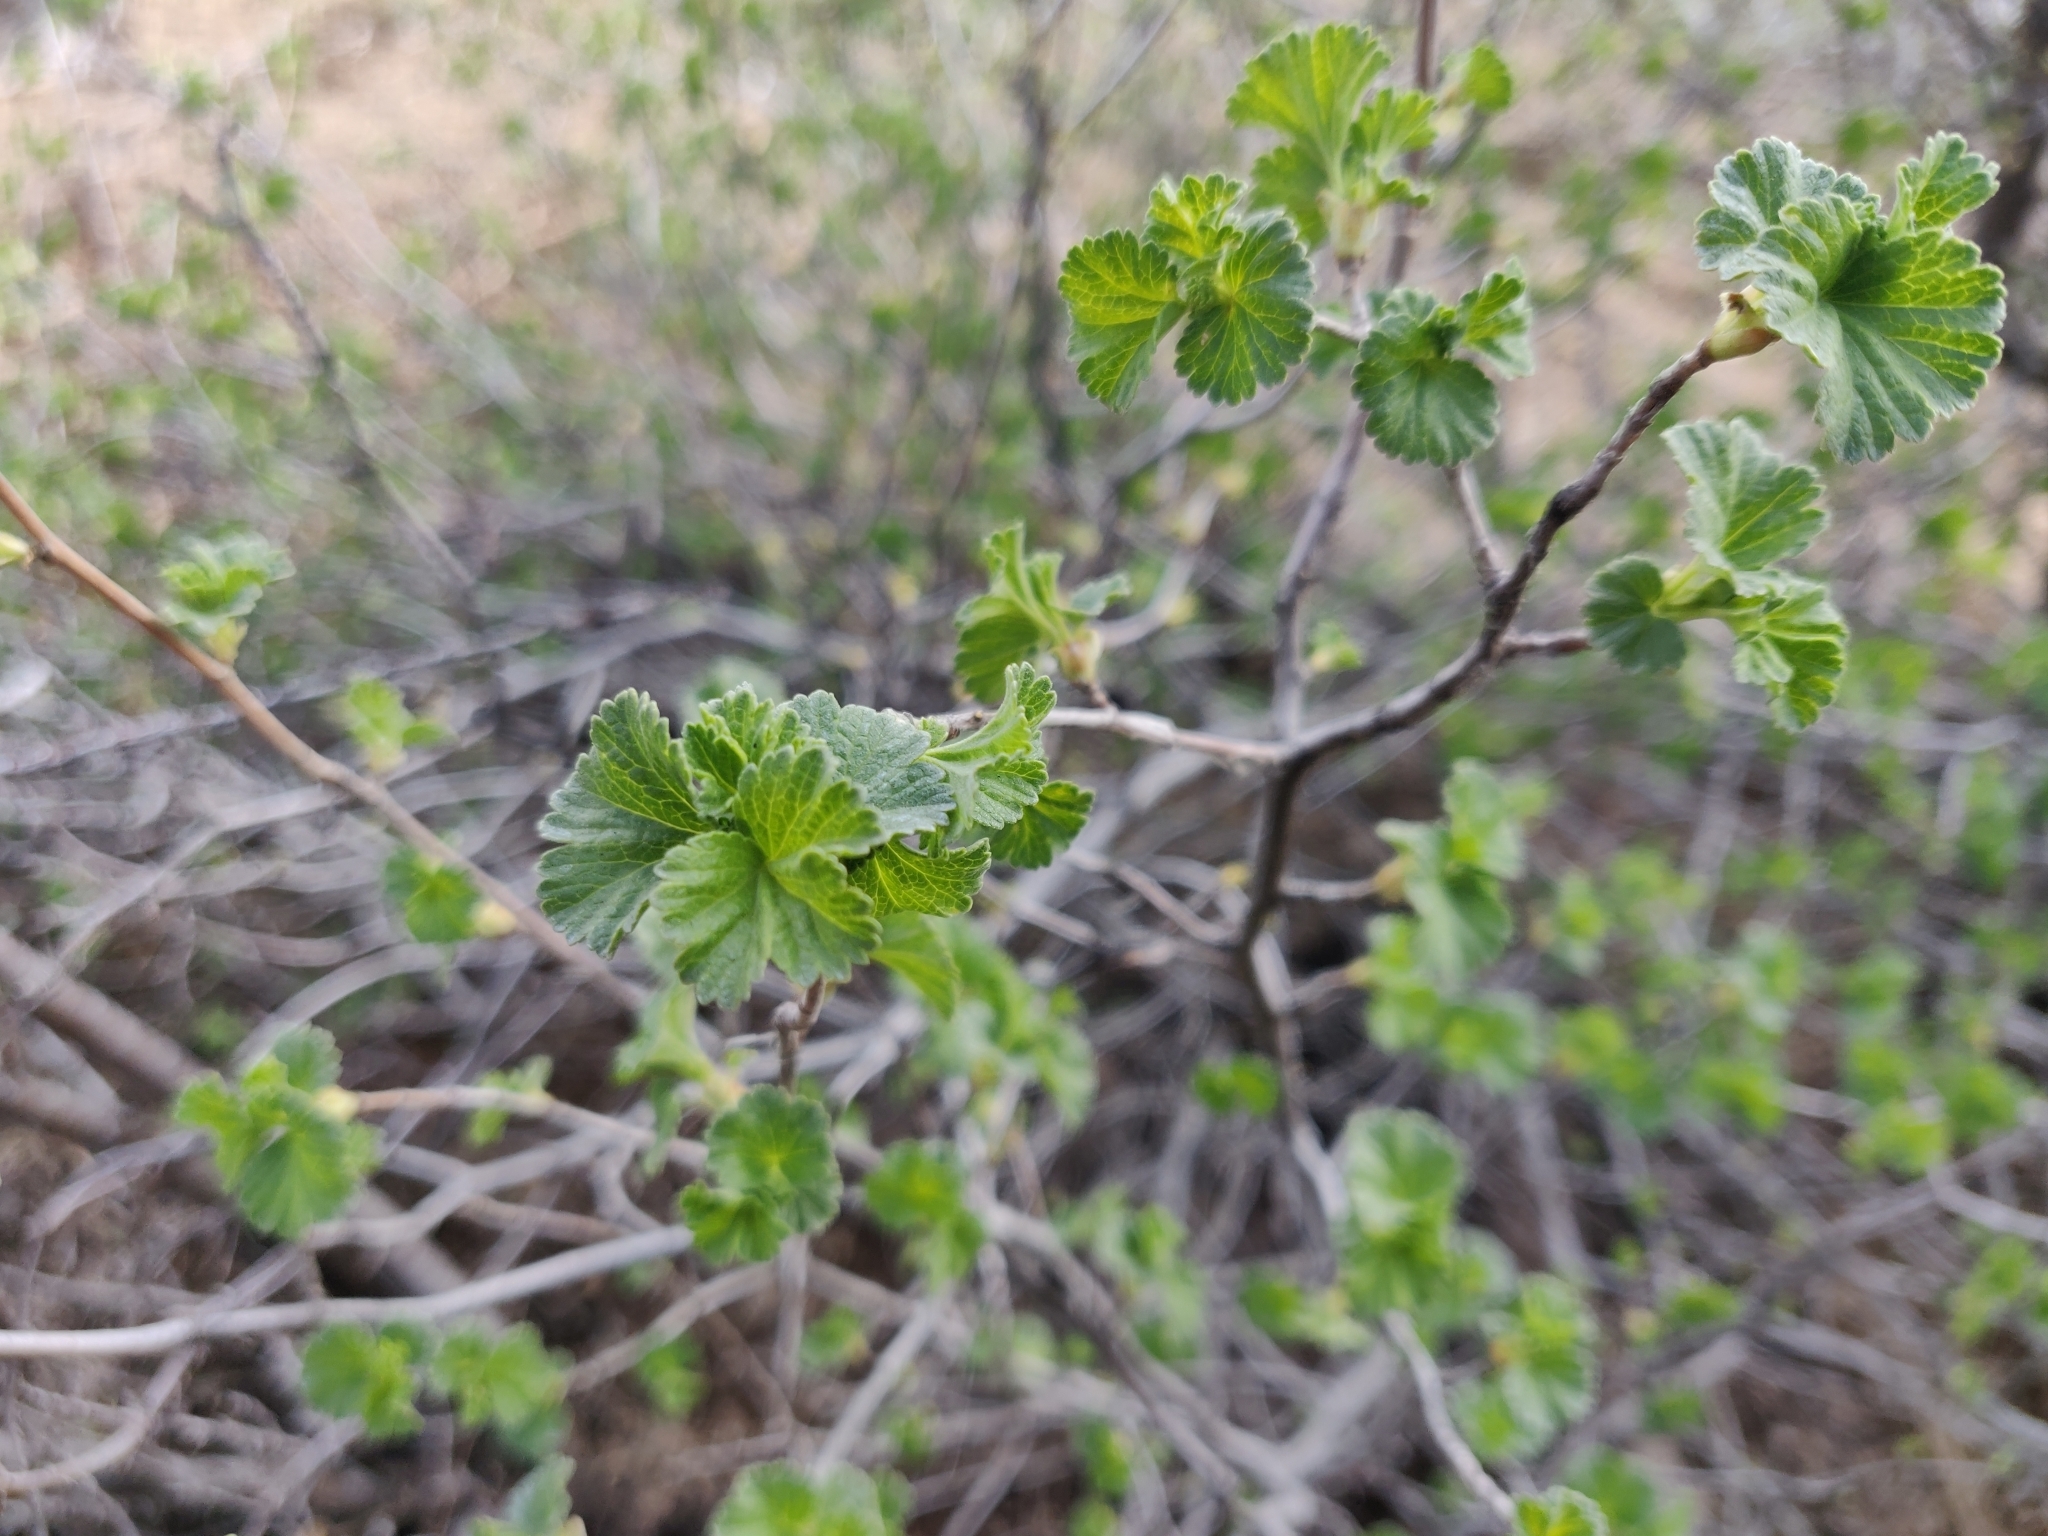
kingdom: Plantae
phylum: Tracheophyta
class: Magnoliopsida
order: Saxifragales
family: Grossulariaceae
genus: Ribes
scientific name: Ribes cereum
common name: Wax currant
